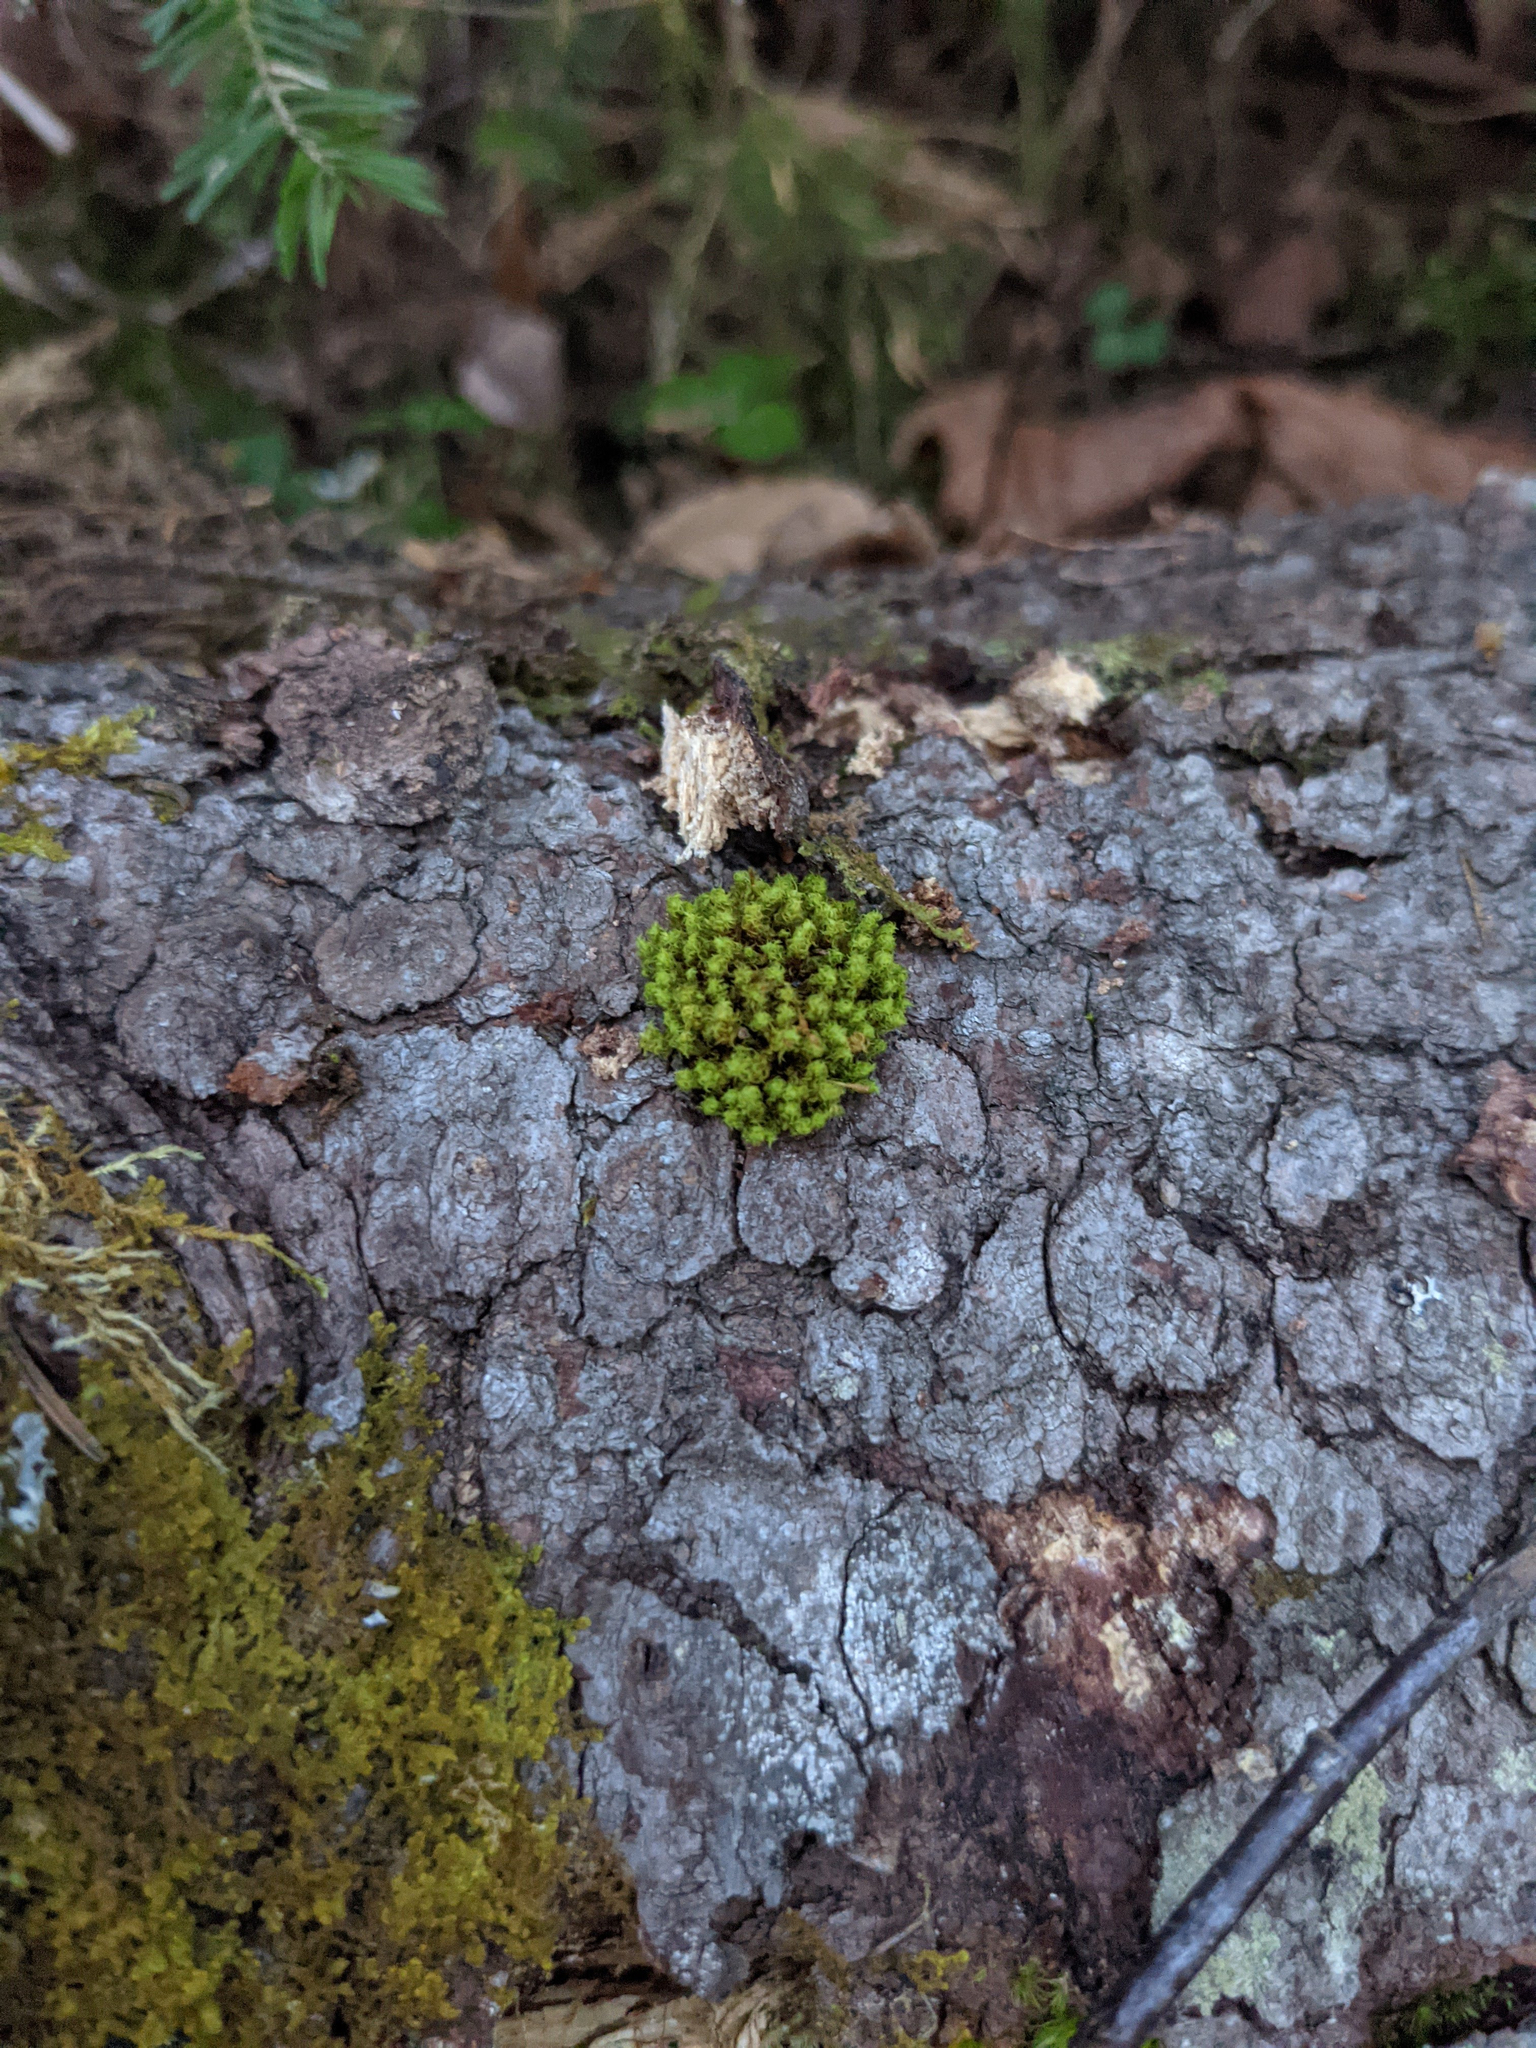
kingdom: Plantae
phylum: Bryophyta
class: Bryopsida
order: Orthotrichales
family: Orthotrichaceae
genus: Ulota
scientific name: Ulota crispa
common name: Crisped pincushion moss
